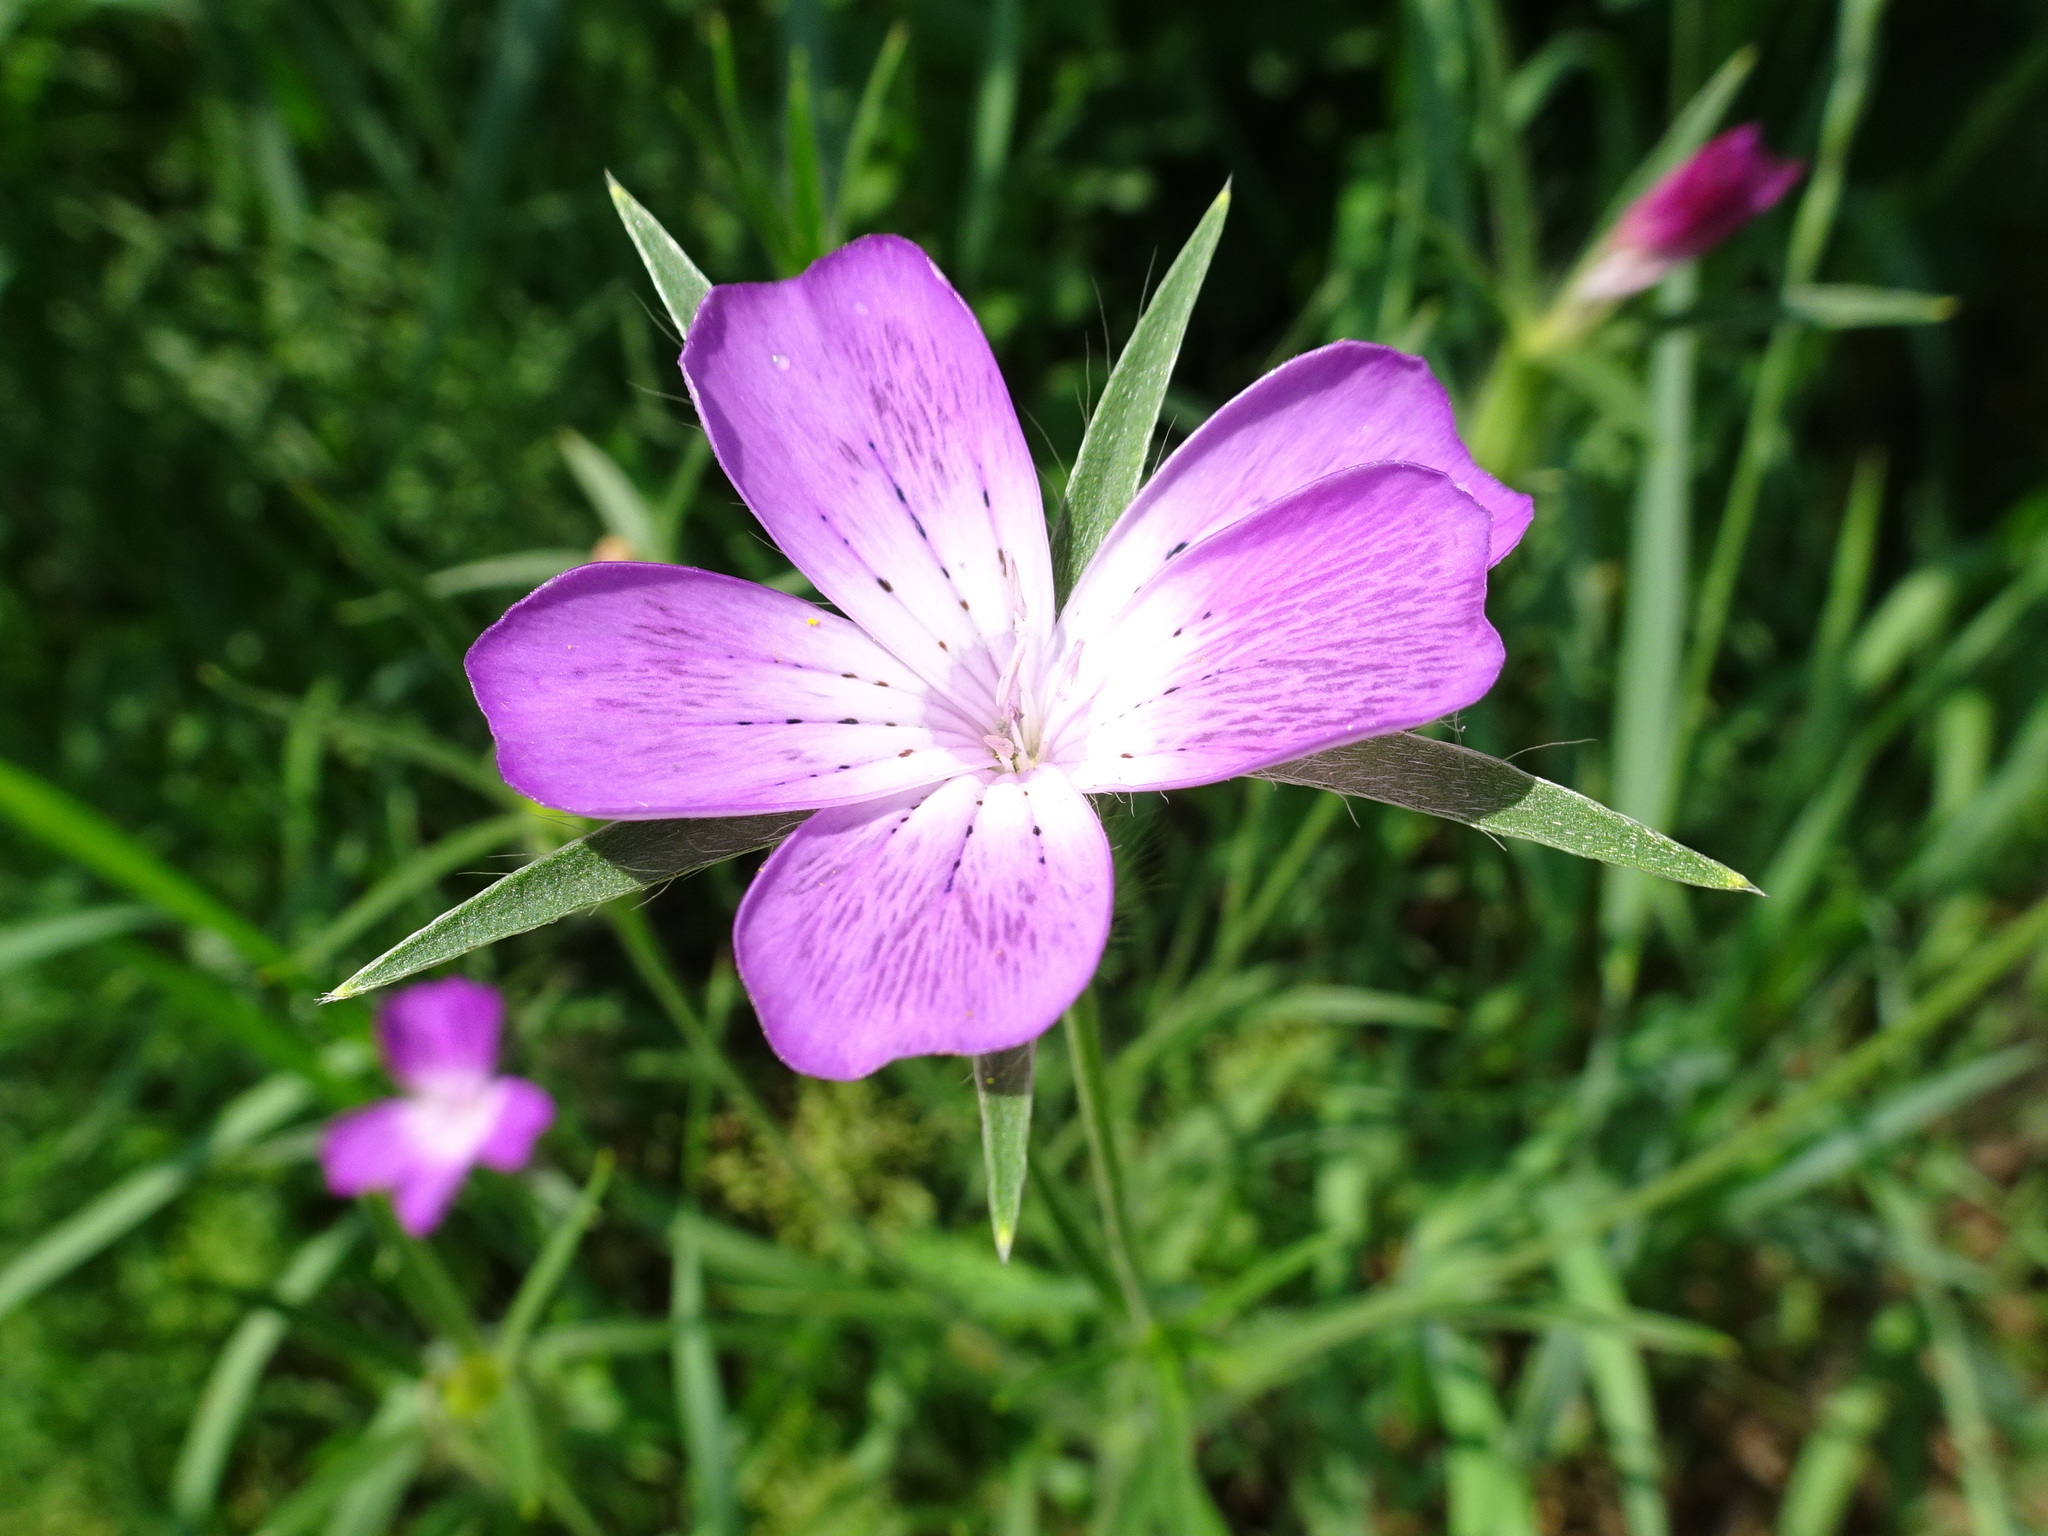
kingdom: Plantae
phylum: Tracheophyta
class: Magnoliopsida
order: Caryophyllales
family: Caryophyllaceae
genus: Agrostemma
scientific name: Agrostemma githago
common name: Common corncockle
